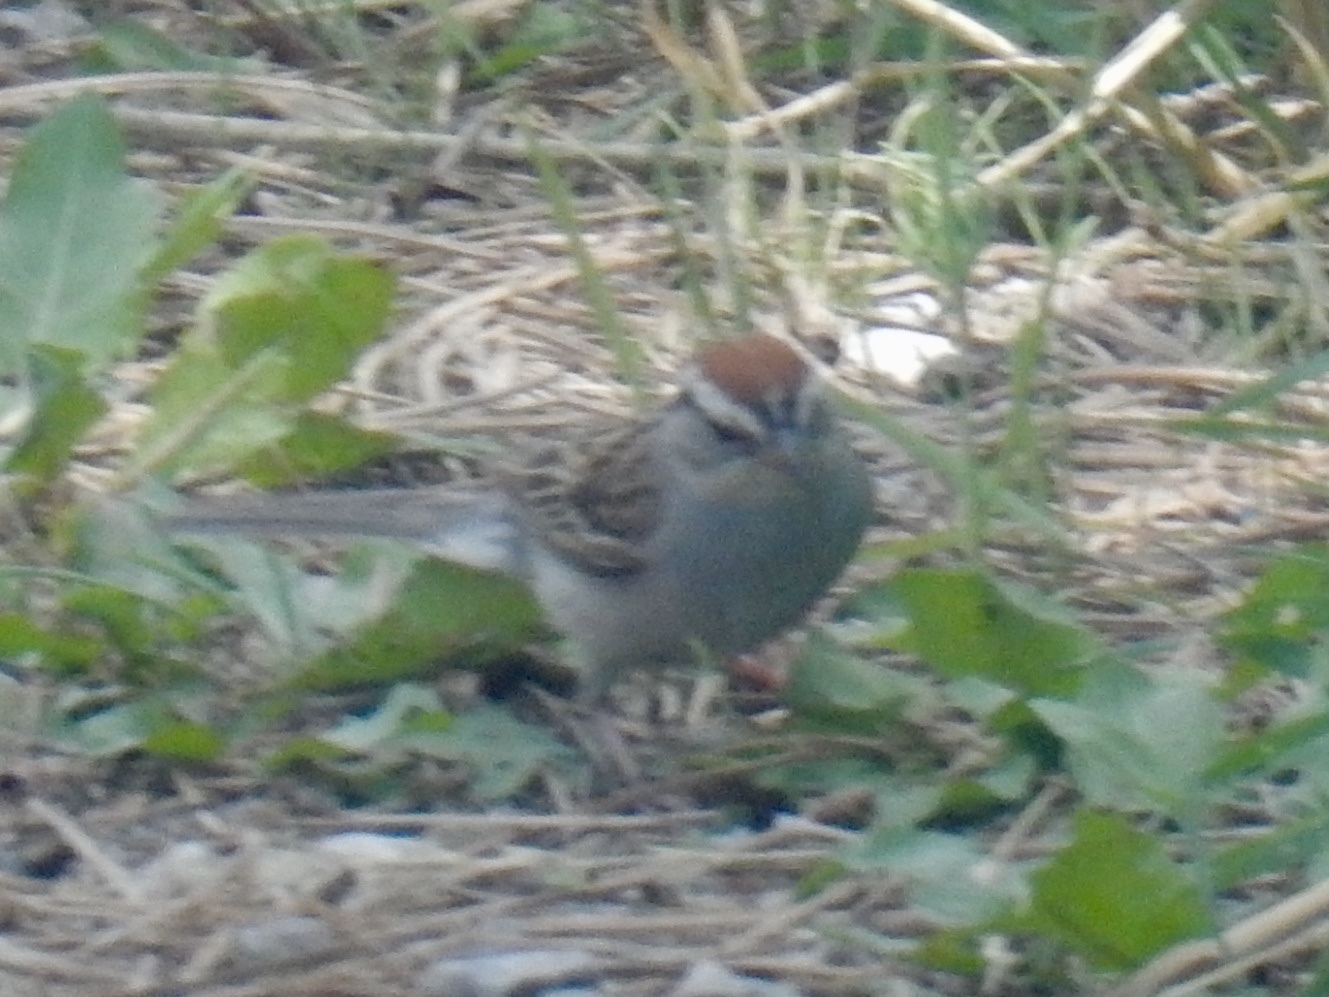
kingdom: Animalia
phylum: Chordata
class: Aves
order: Passeriformes
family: Passerellidae
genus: Spizella
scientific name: Spizella passerina
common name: Chipping sparrow
